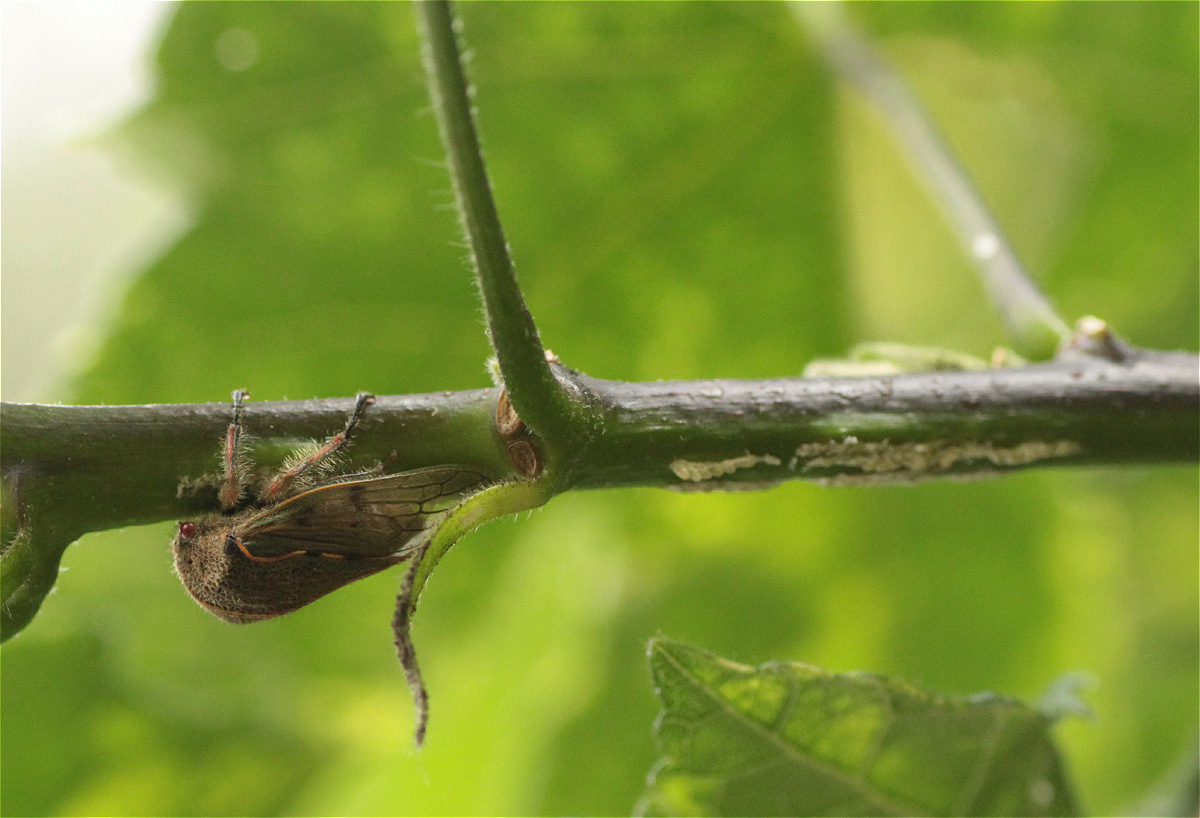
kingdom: Animalia
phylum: Arthropoda
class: Insecta
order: Hemiptera
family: Membracidae
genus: Metcalfiella
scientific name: Metcalfiella jaramillorum
